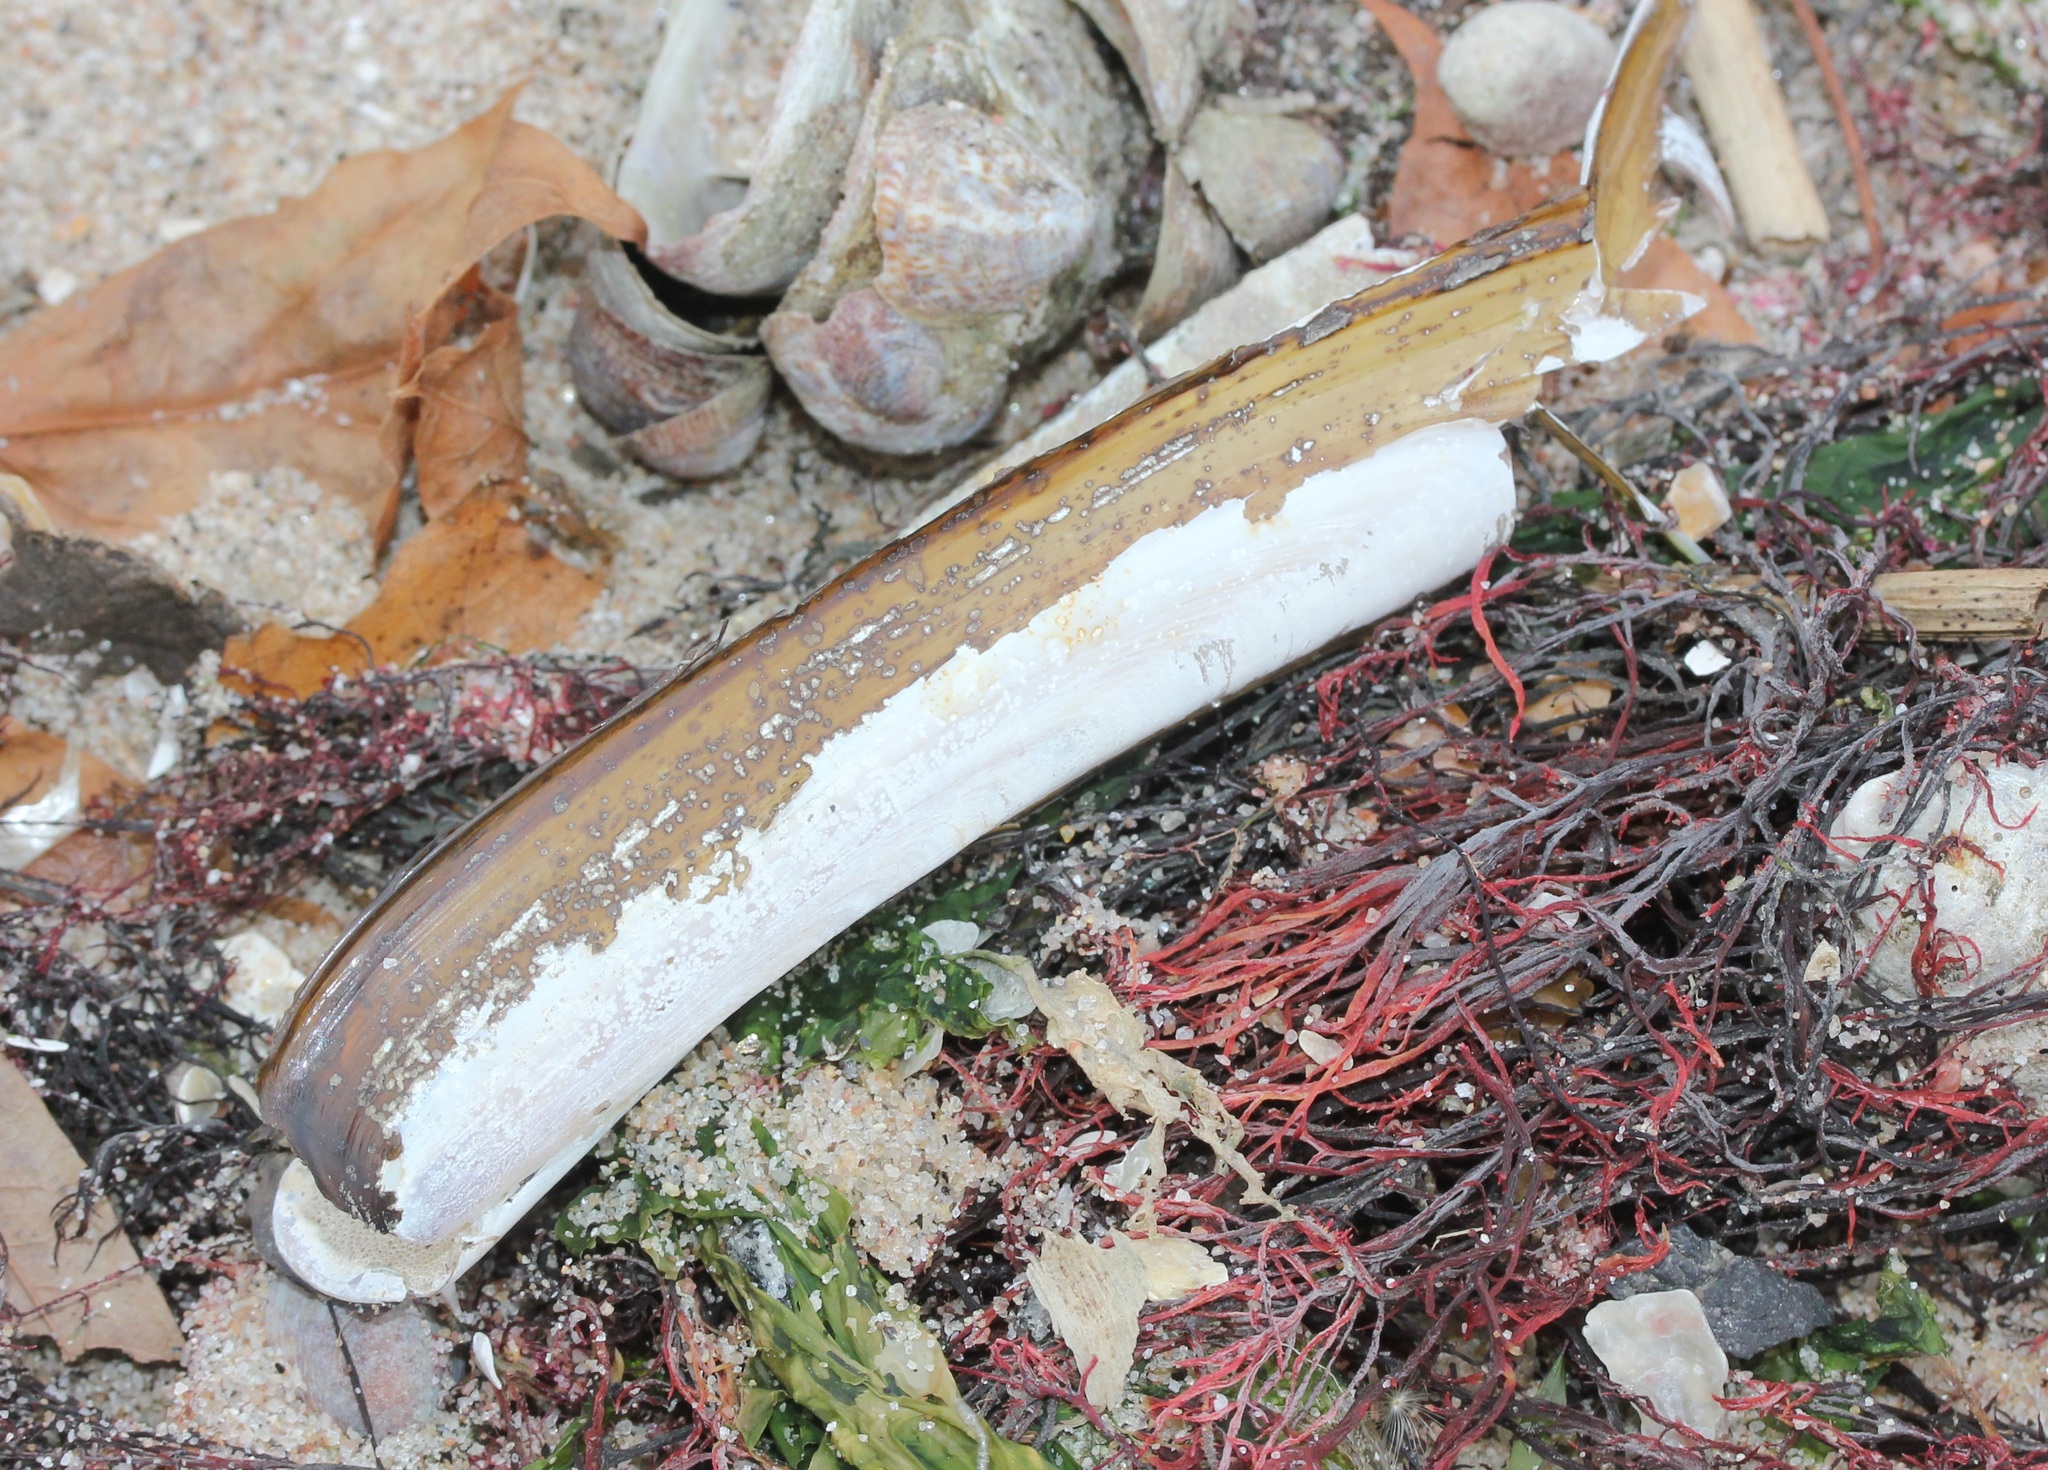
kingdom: Animalia
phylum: Mollusca
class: Bivalvia
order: Adapedonta
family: Pharidae
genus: Ensis
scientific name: Ensis leei
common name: American jack knife clam
